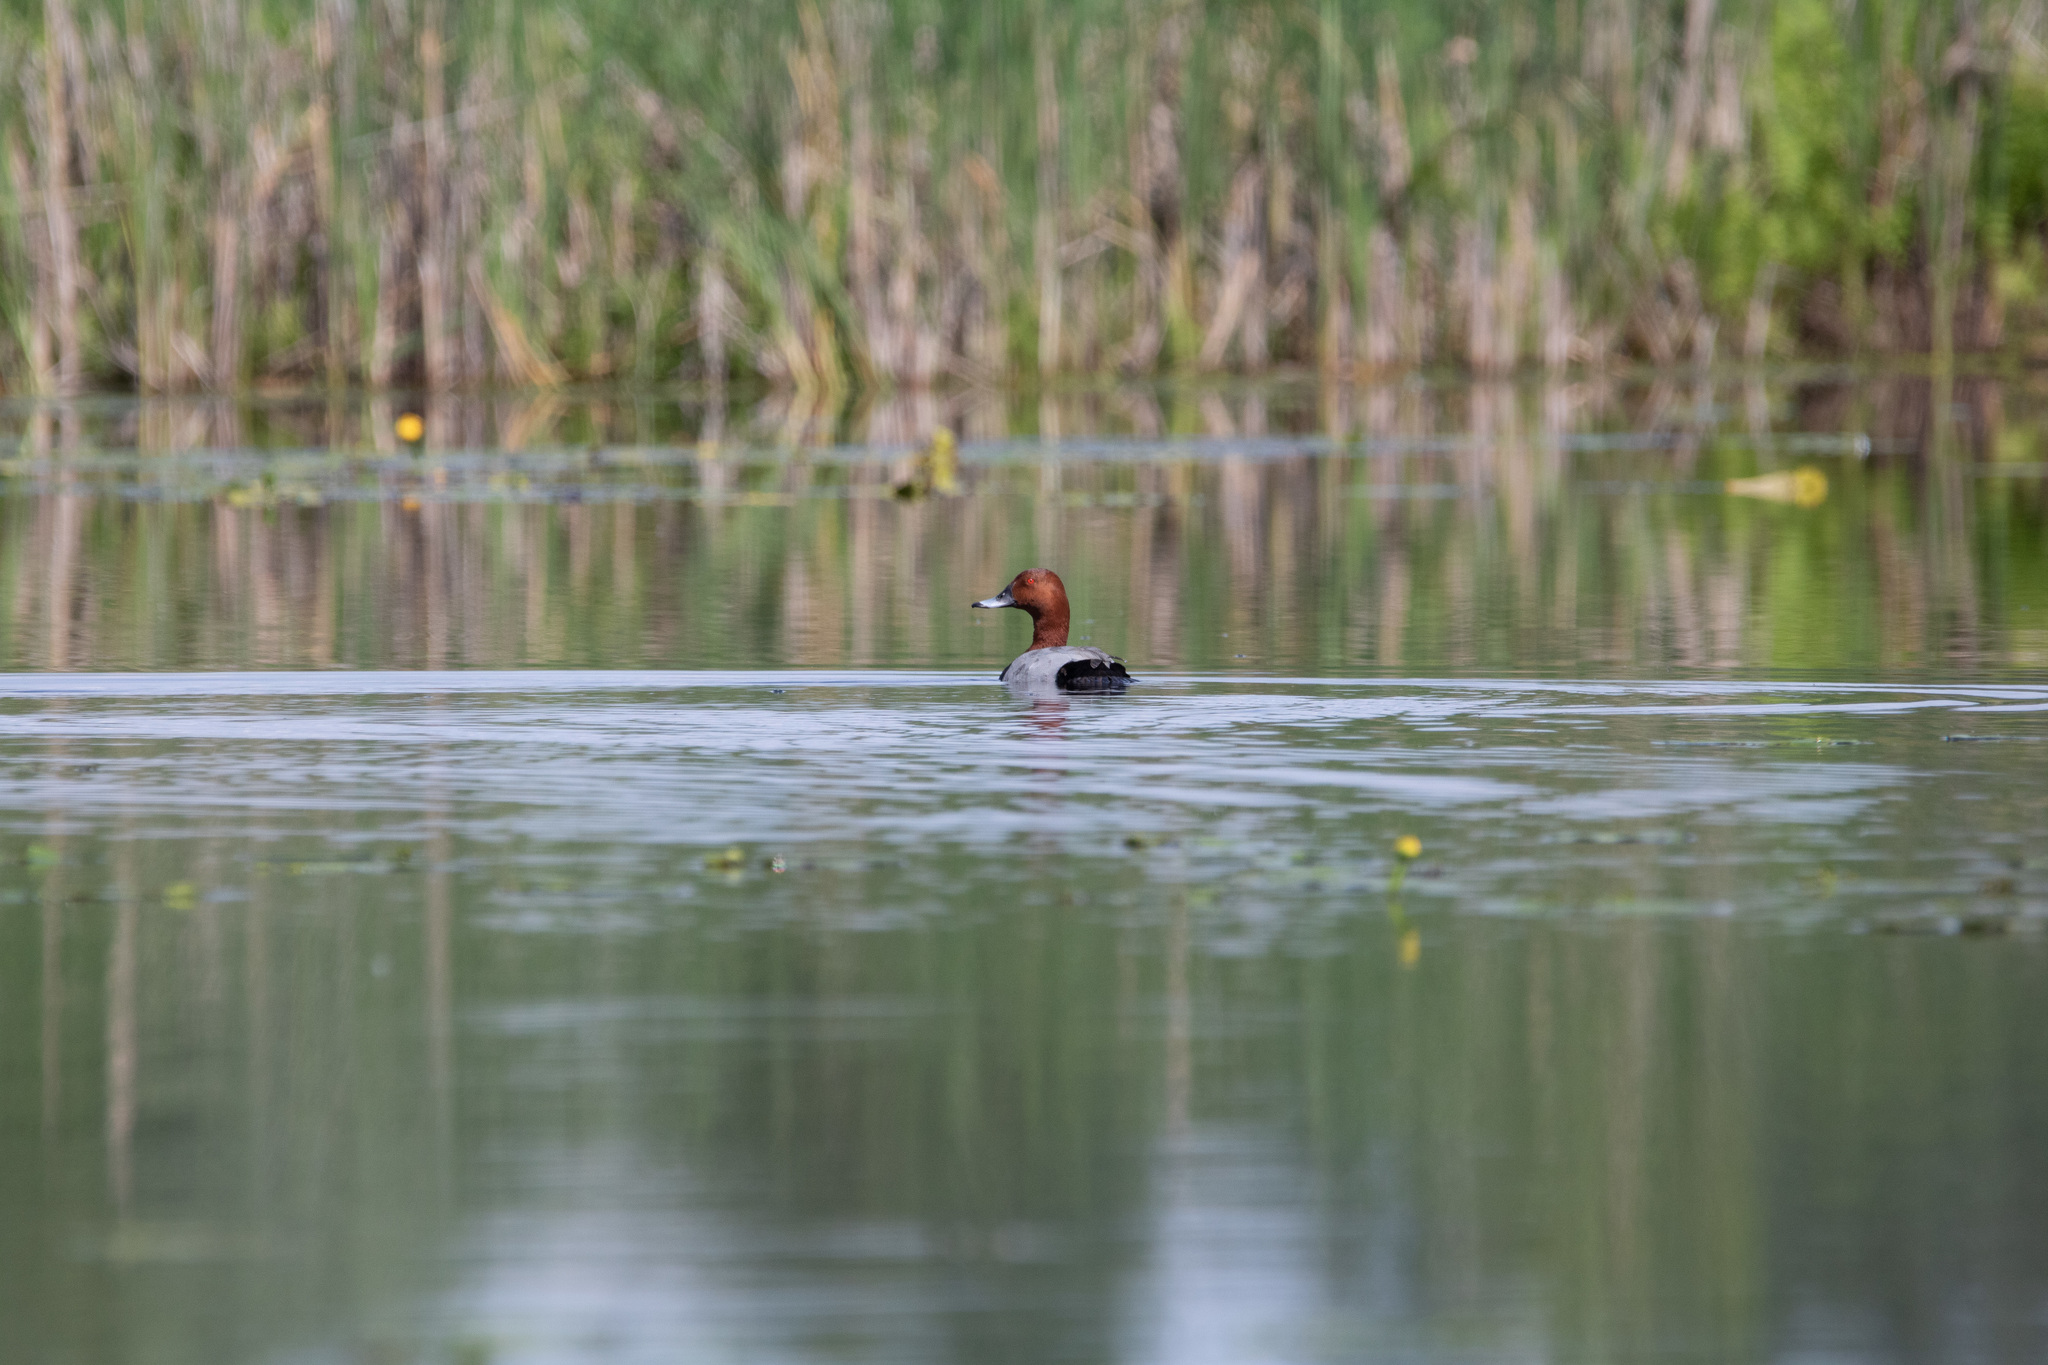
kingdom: Animalia
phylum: Chordata
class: Aves
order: Anseriformes
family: Anatidae
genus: Aythya
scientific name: Aythya ferina
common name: Common pochard
